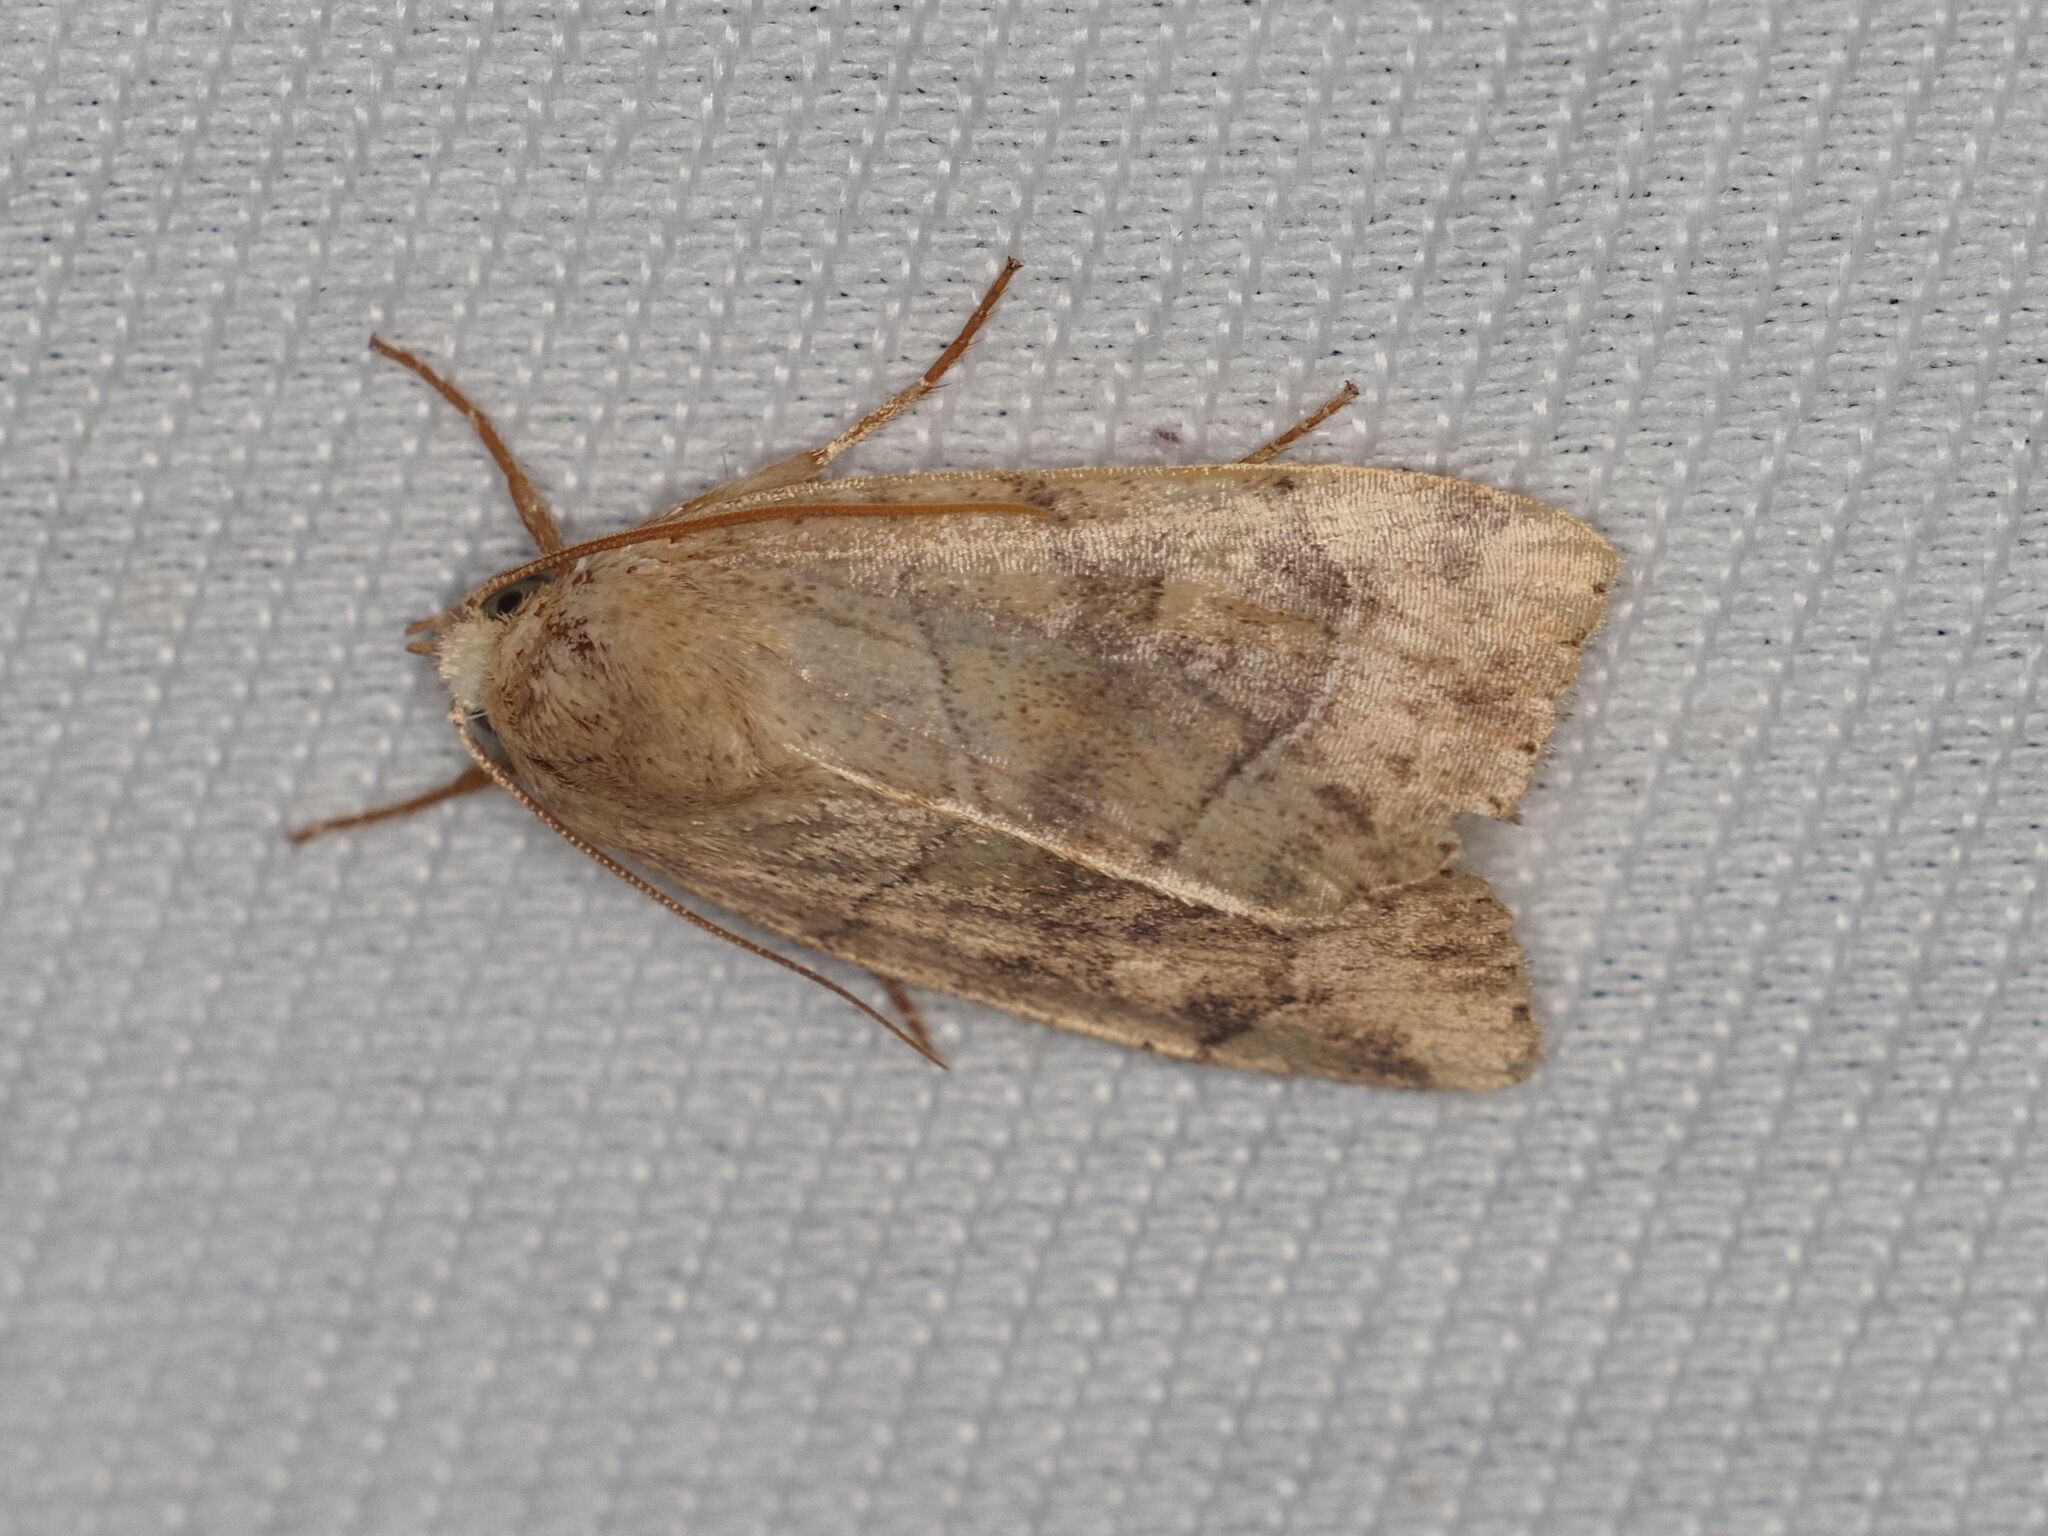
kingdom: Animalia
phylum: Arthropoda
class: Insecta
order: Lepidoptera
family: Noctuidae
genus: Cosmia
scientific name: Cosmia trapezina
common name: Dun-bar
